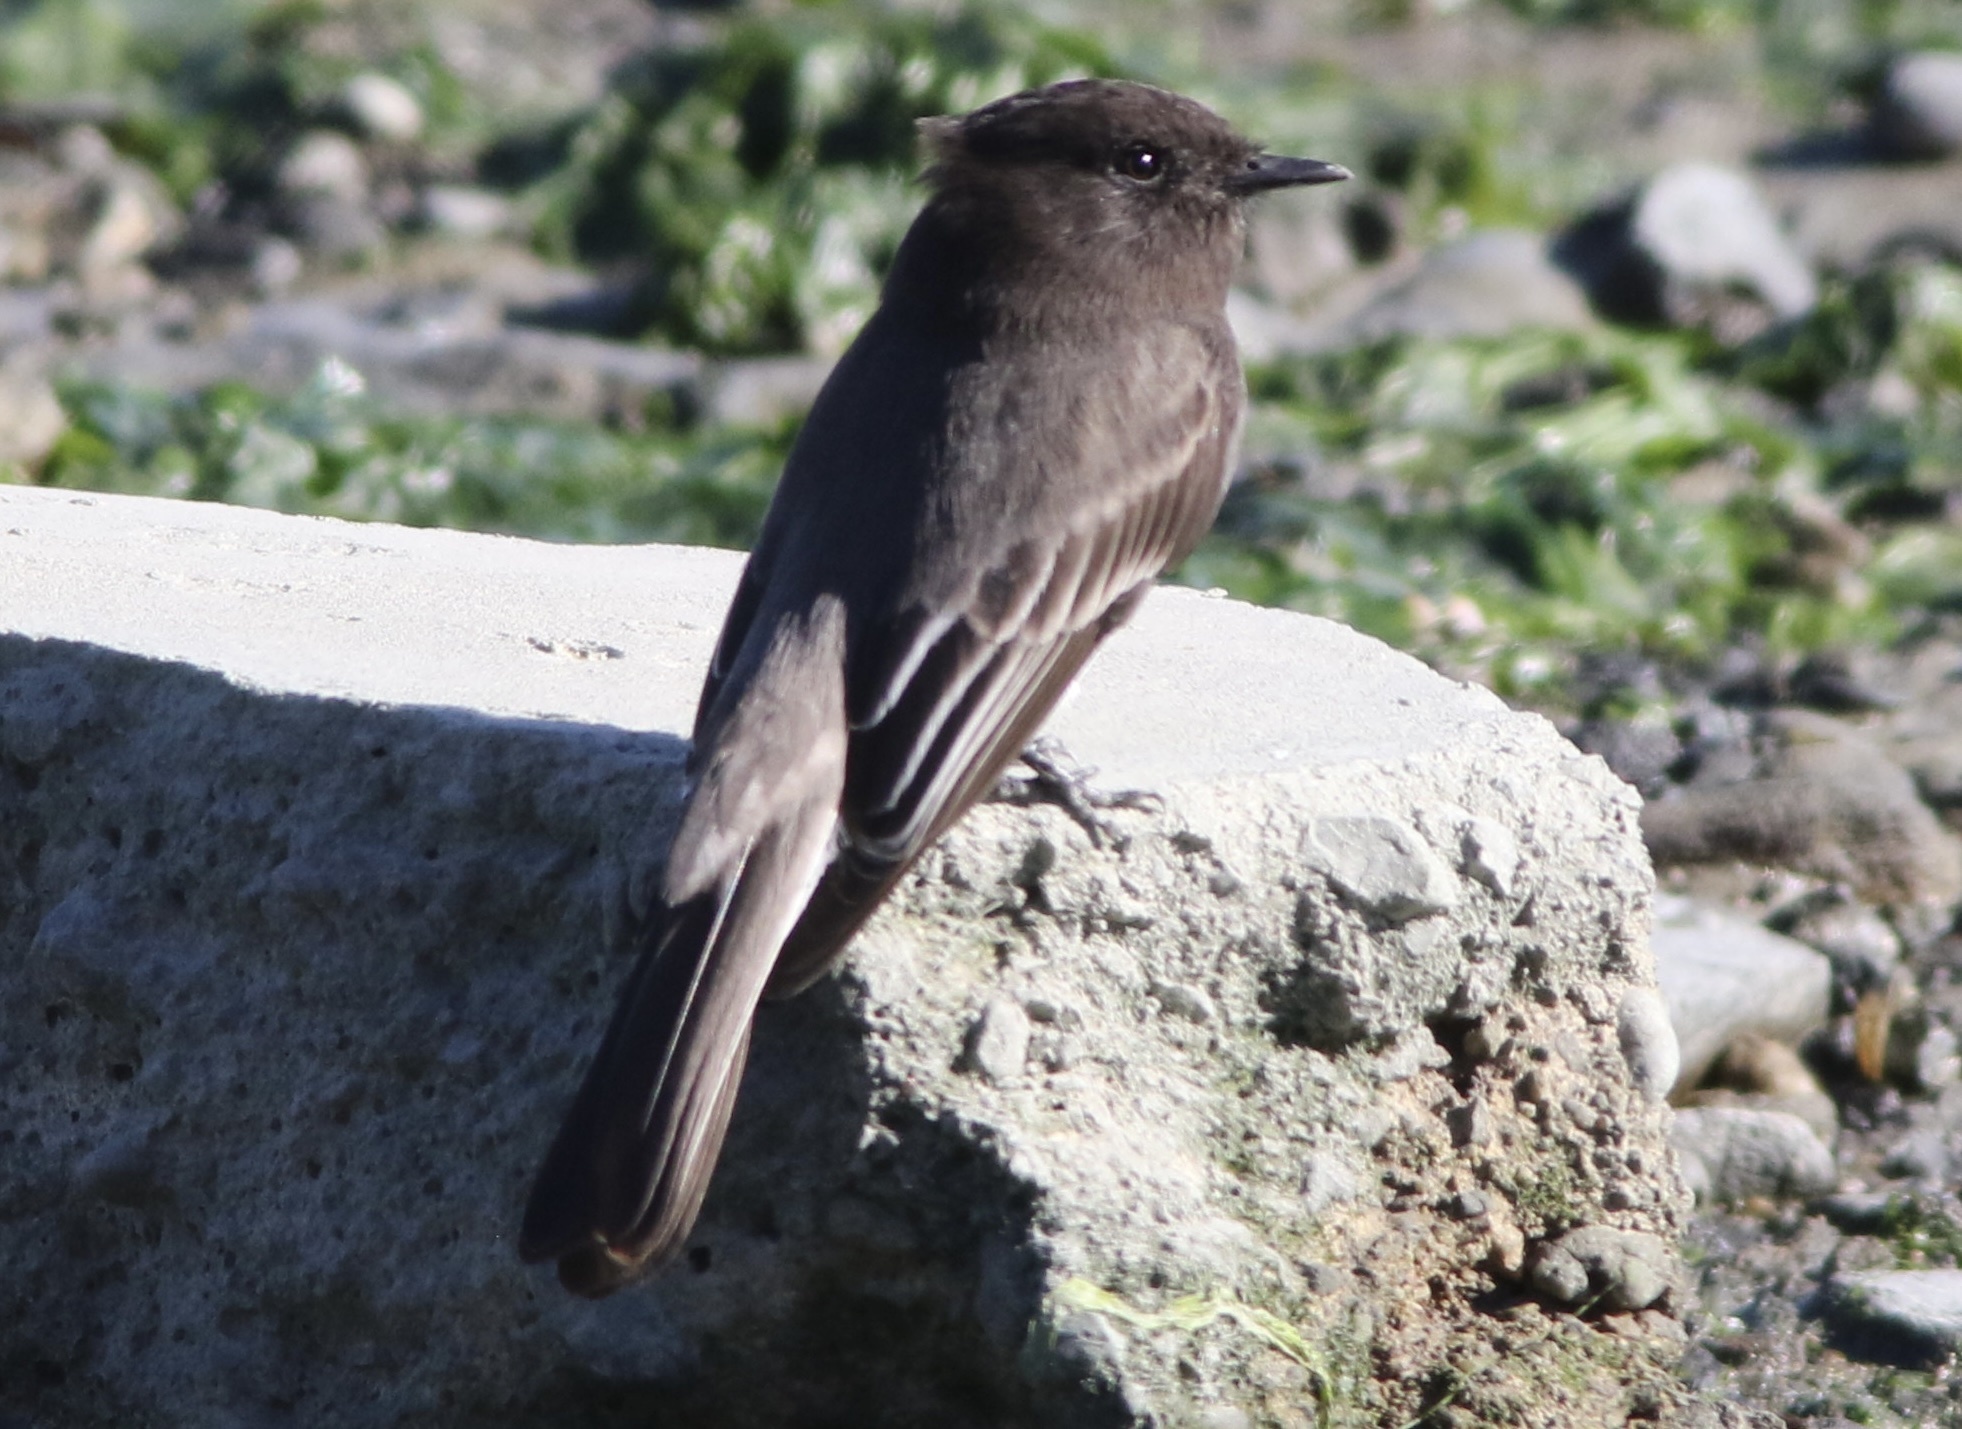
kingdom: Animalia
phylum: Chordata
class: Aves
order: Passeriformes
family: Tyrannidae
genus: Sayornis
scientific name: Sayornis nigricans
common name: Black phoebe
